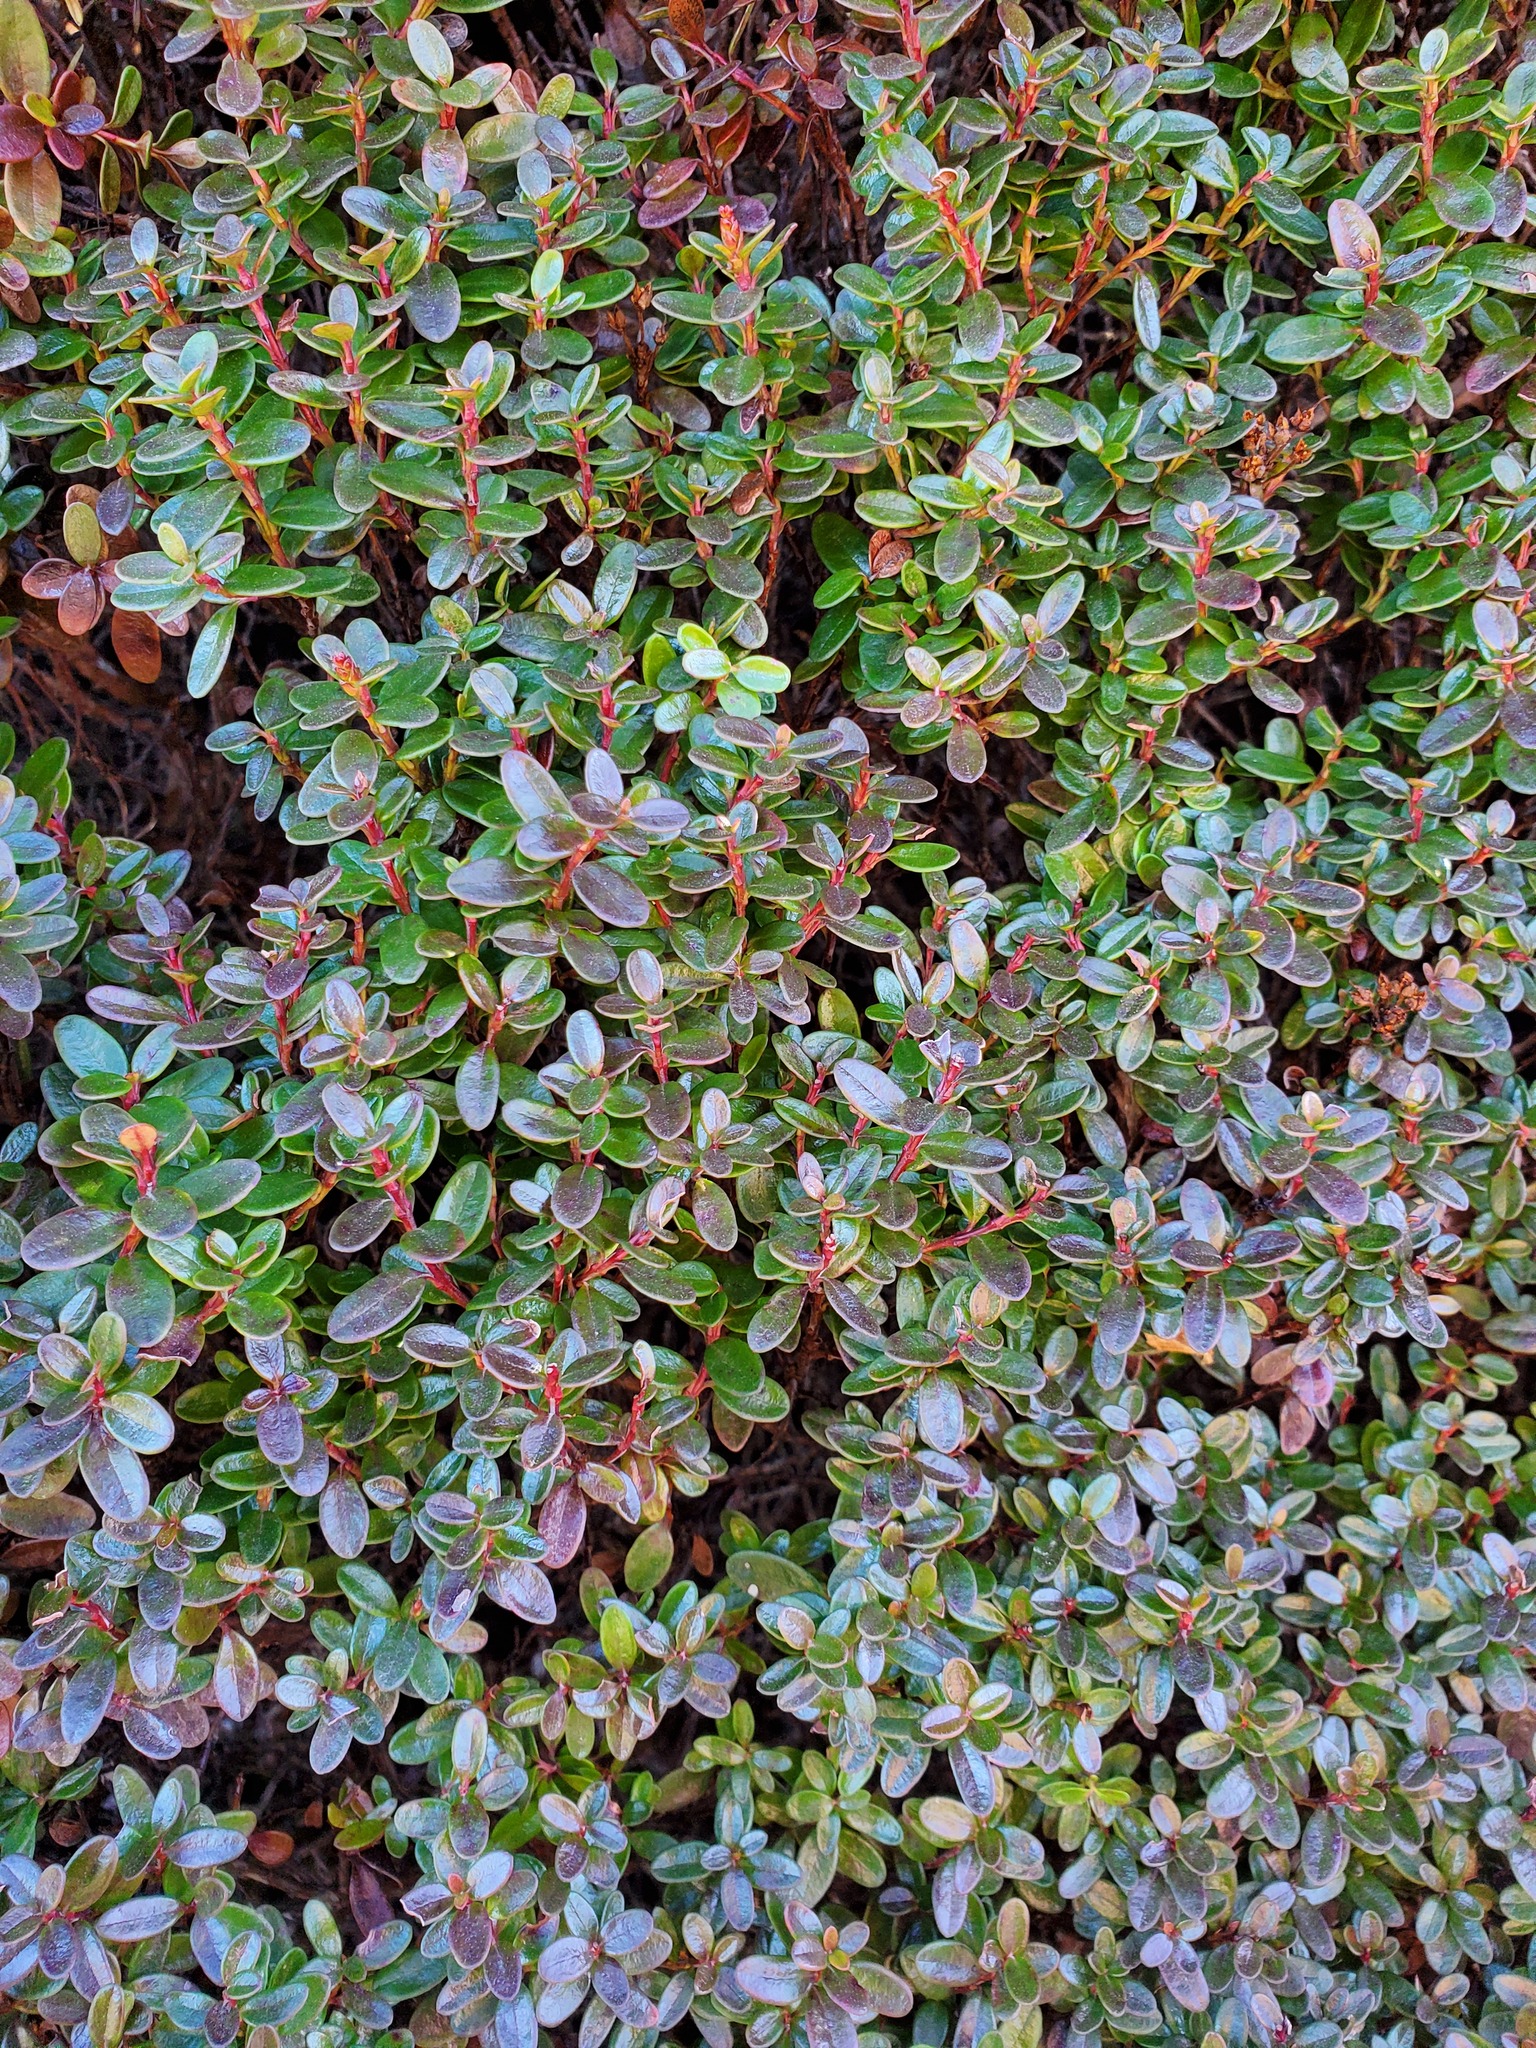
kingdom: Plantae
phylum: Tracheophyta
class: Magnoliopsida
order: Ericales
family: Ericaceae
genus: Kalmia
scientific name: Kalmia buxifolia
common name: Sandmyrtle
